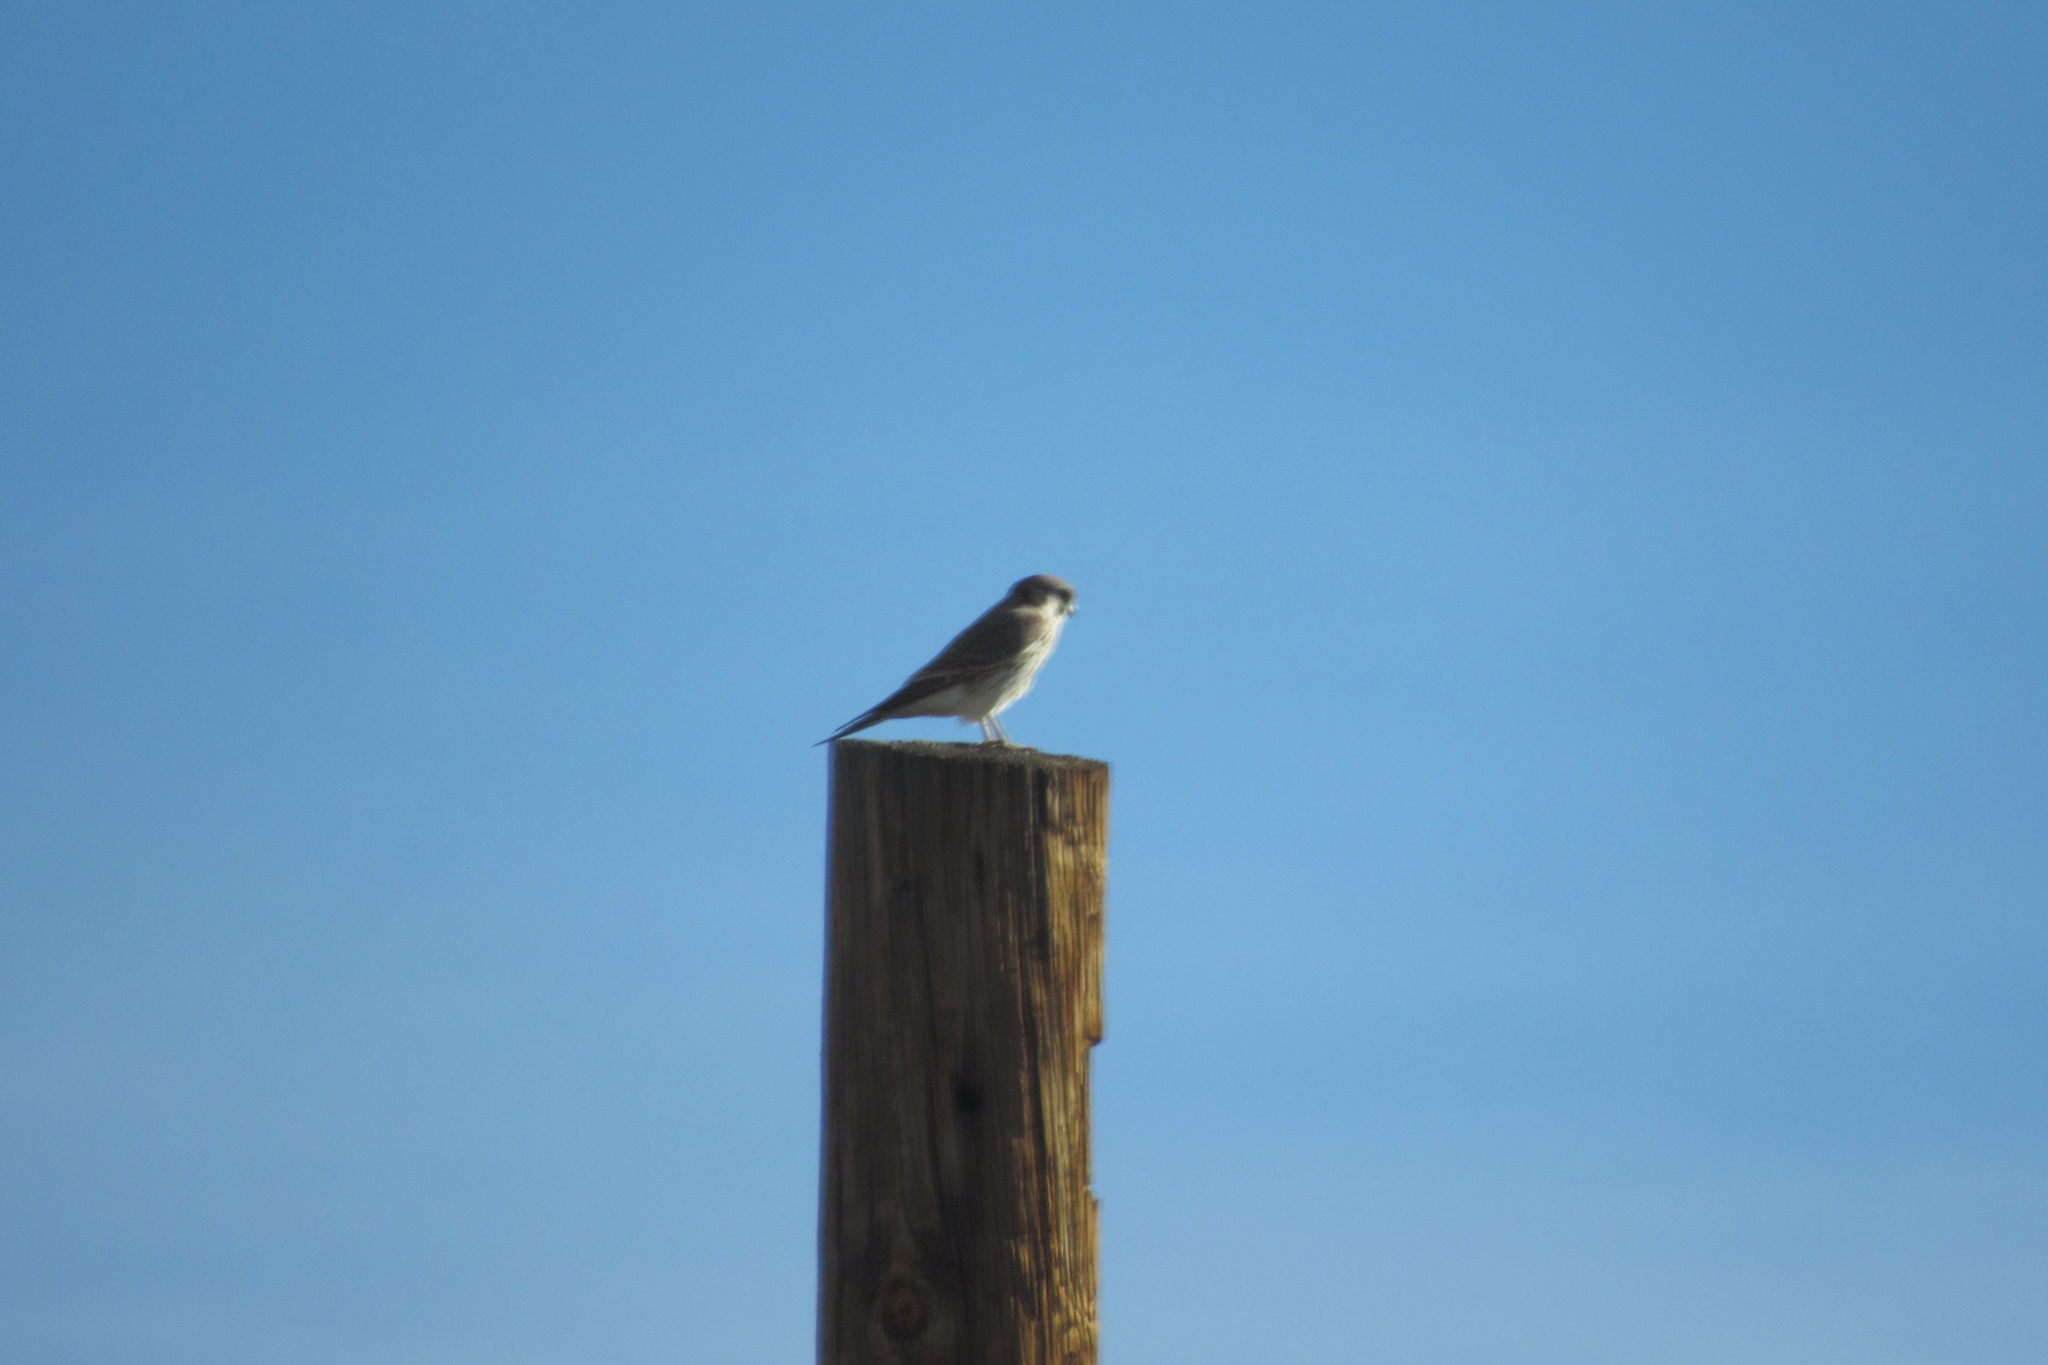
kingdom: Animalia
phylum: Chordata
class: Aves
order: Falconiformes
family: Falconidae
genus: Falco
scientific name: Falco sparverius
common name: American kestrel
